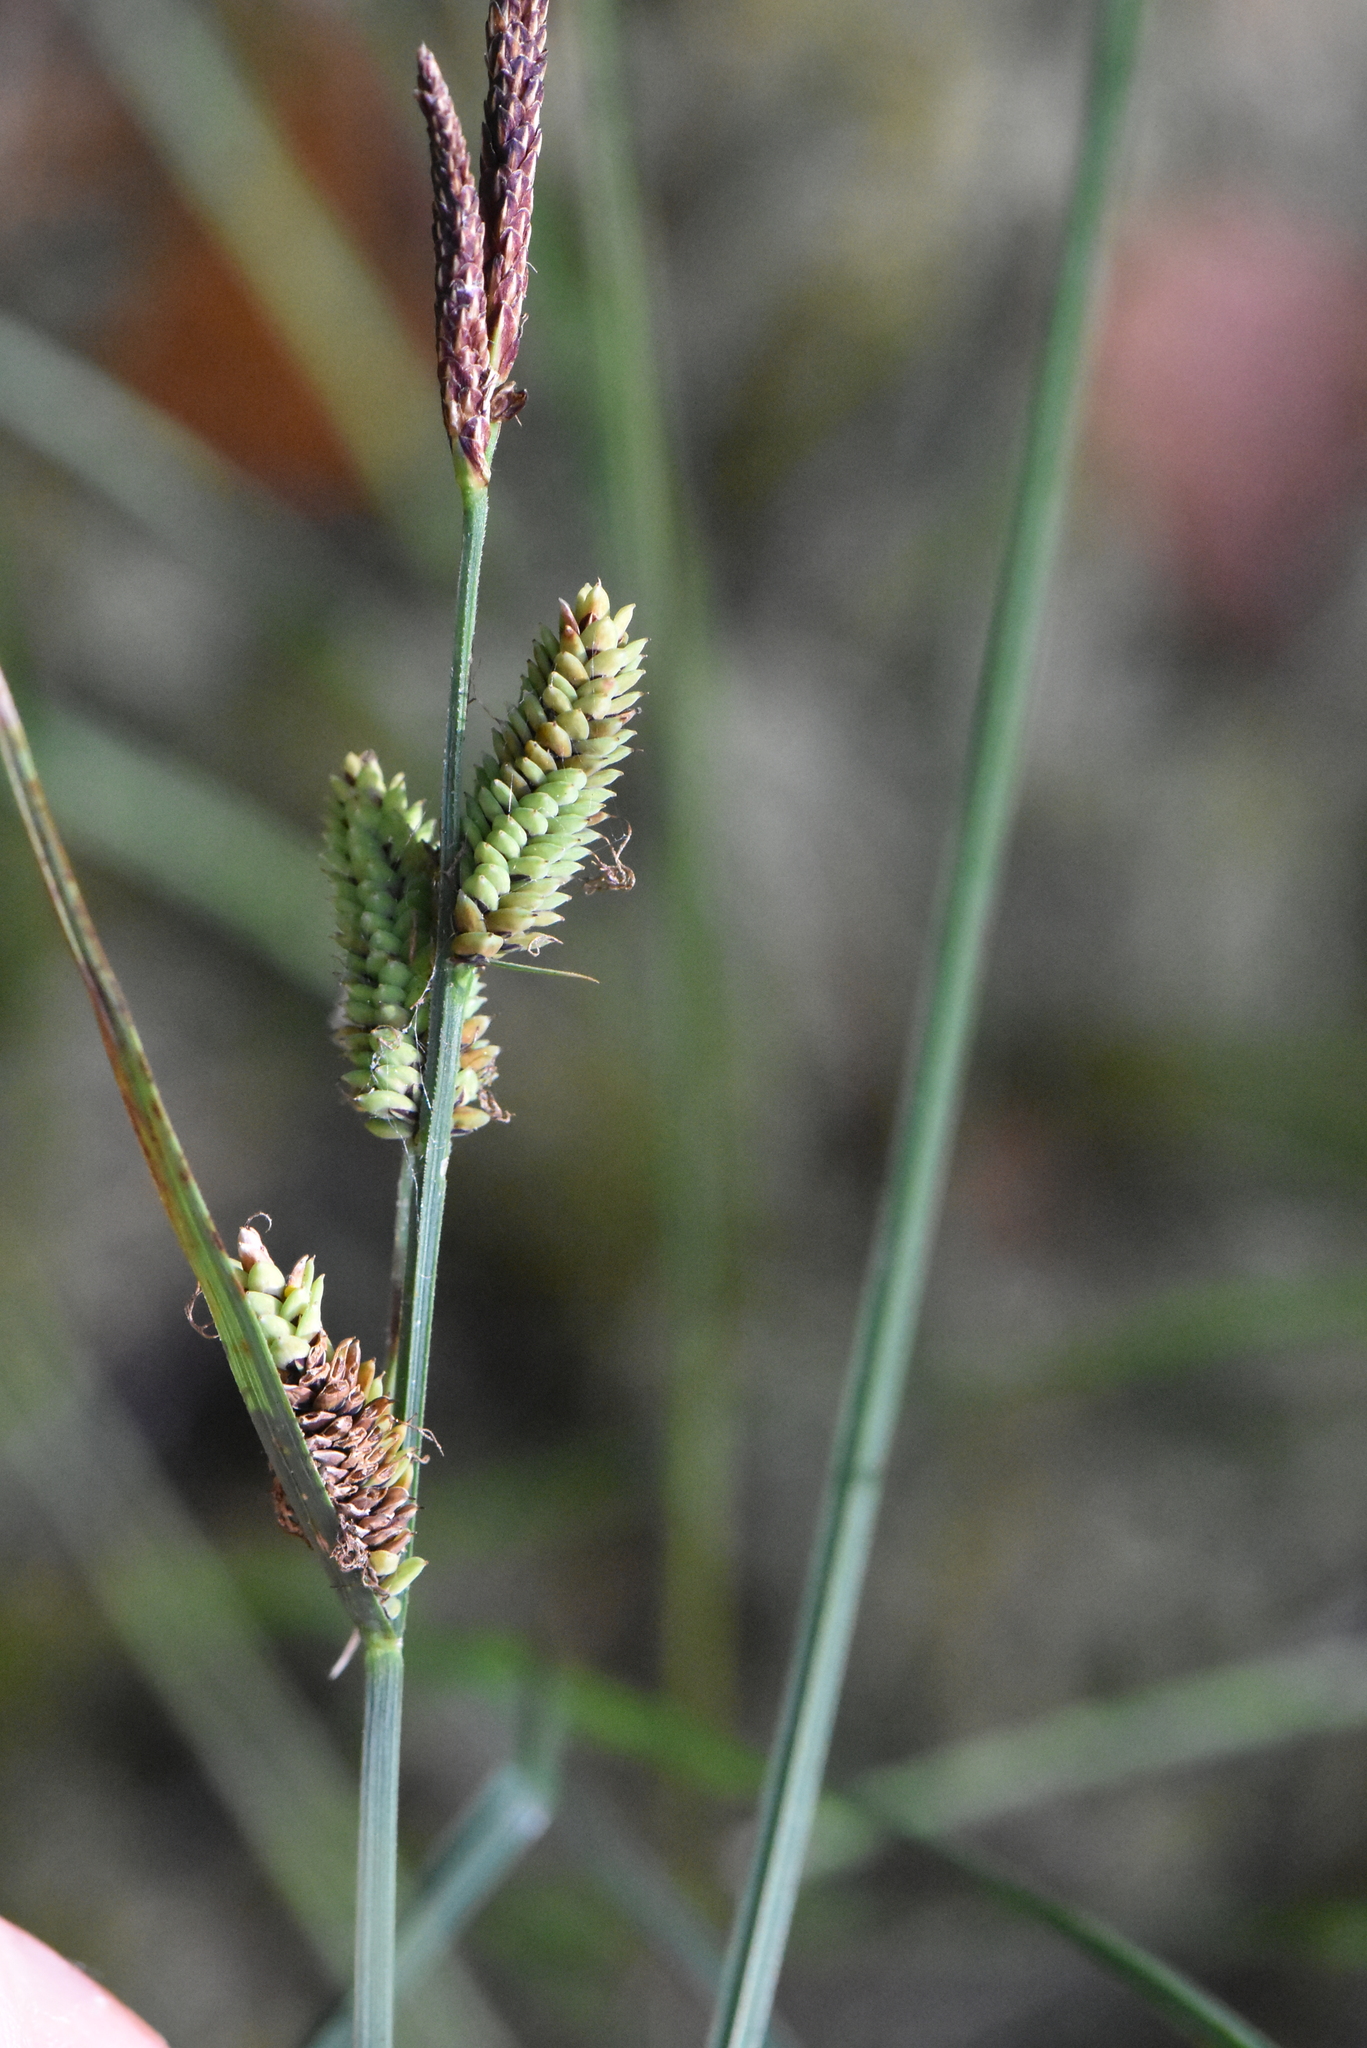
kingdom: Plantae
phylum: Tracheophyta
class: Liliopsida
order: Poales
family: Cyperaceae
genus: Carex
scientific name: Carex nigra
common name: Common sedge
